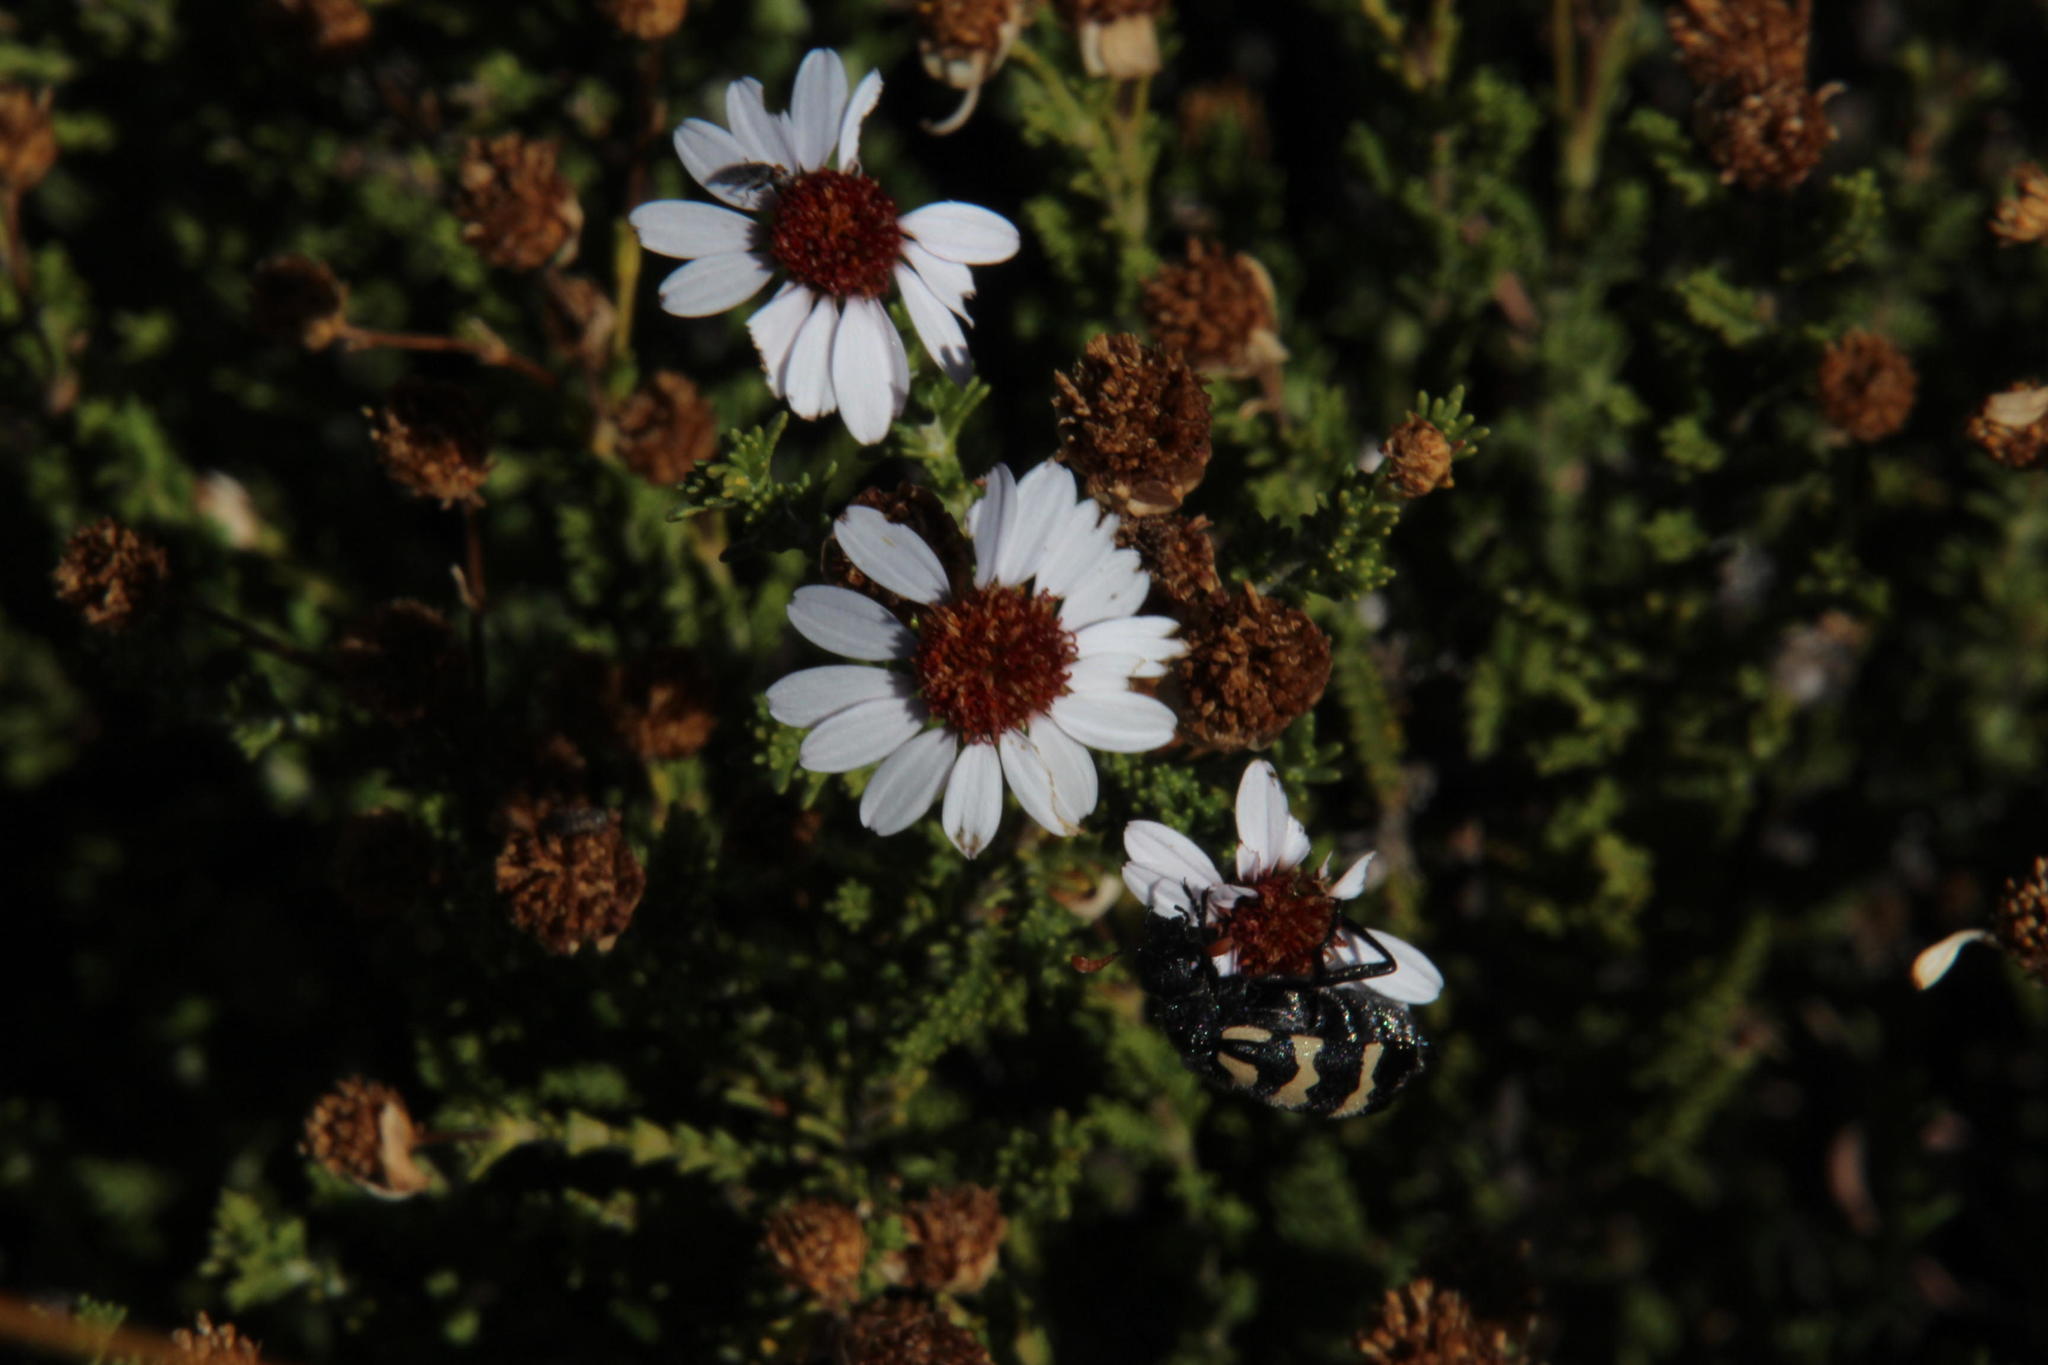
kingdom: Animalia
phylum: Arthropoda
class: Insecta
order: Coleoptera
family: Meloidae
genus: Meloe
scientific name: Meloe lunata
